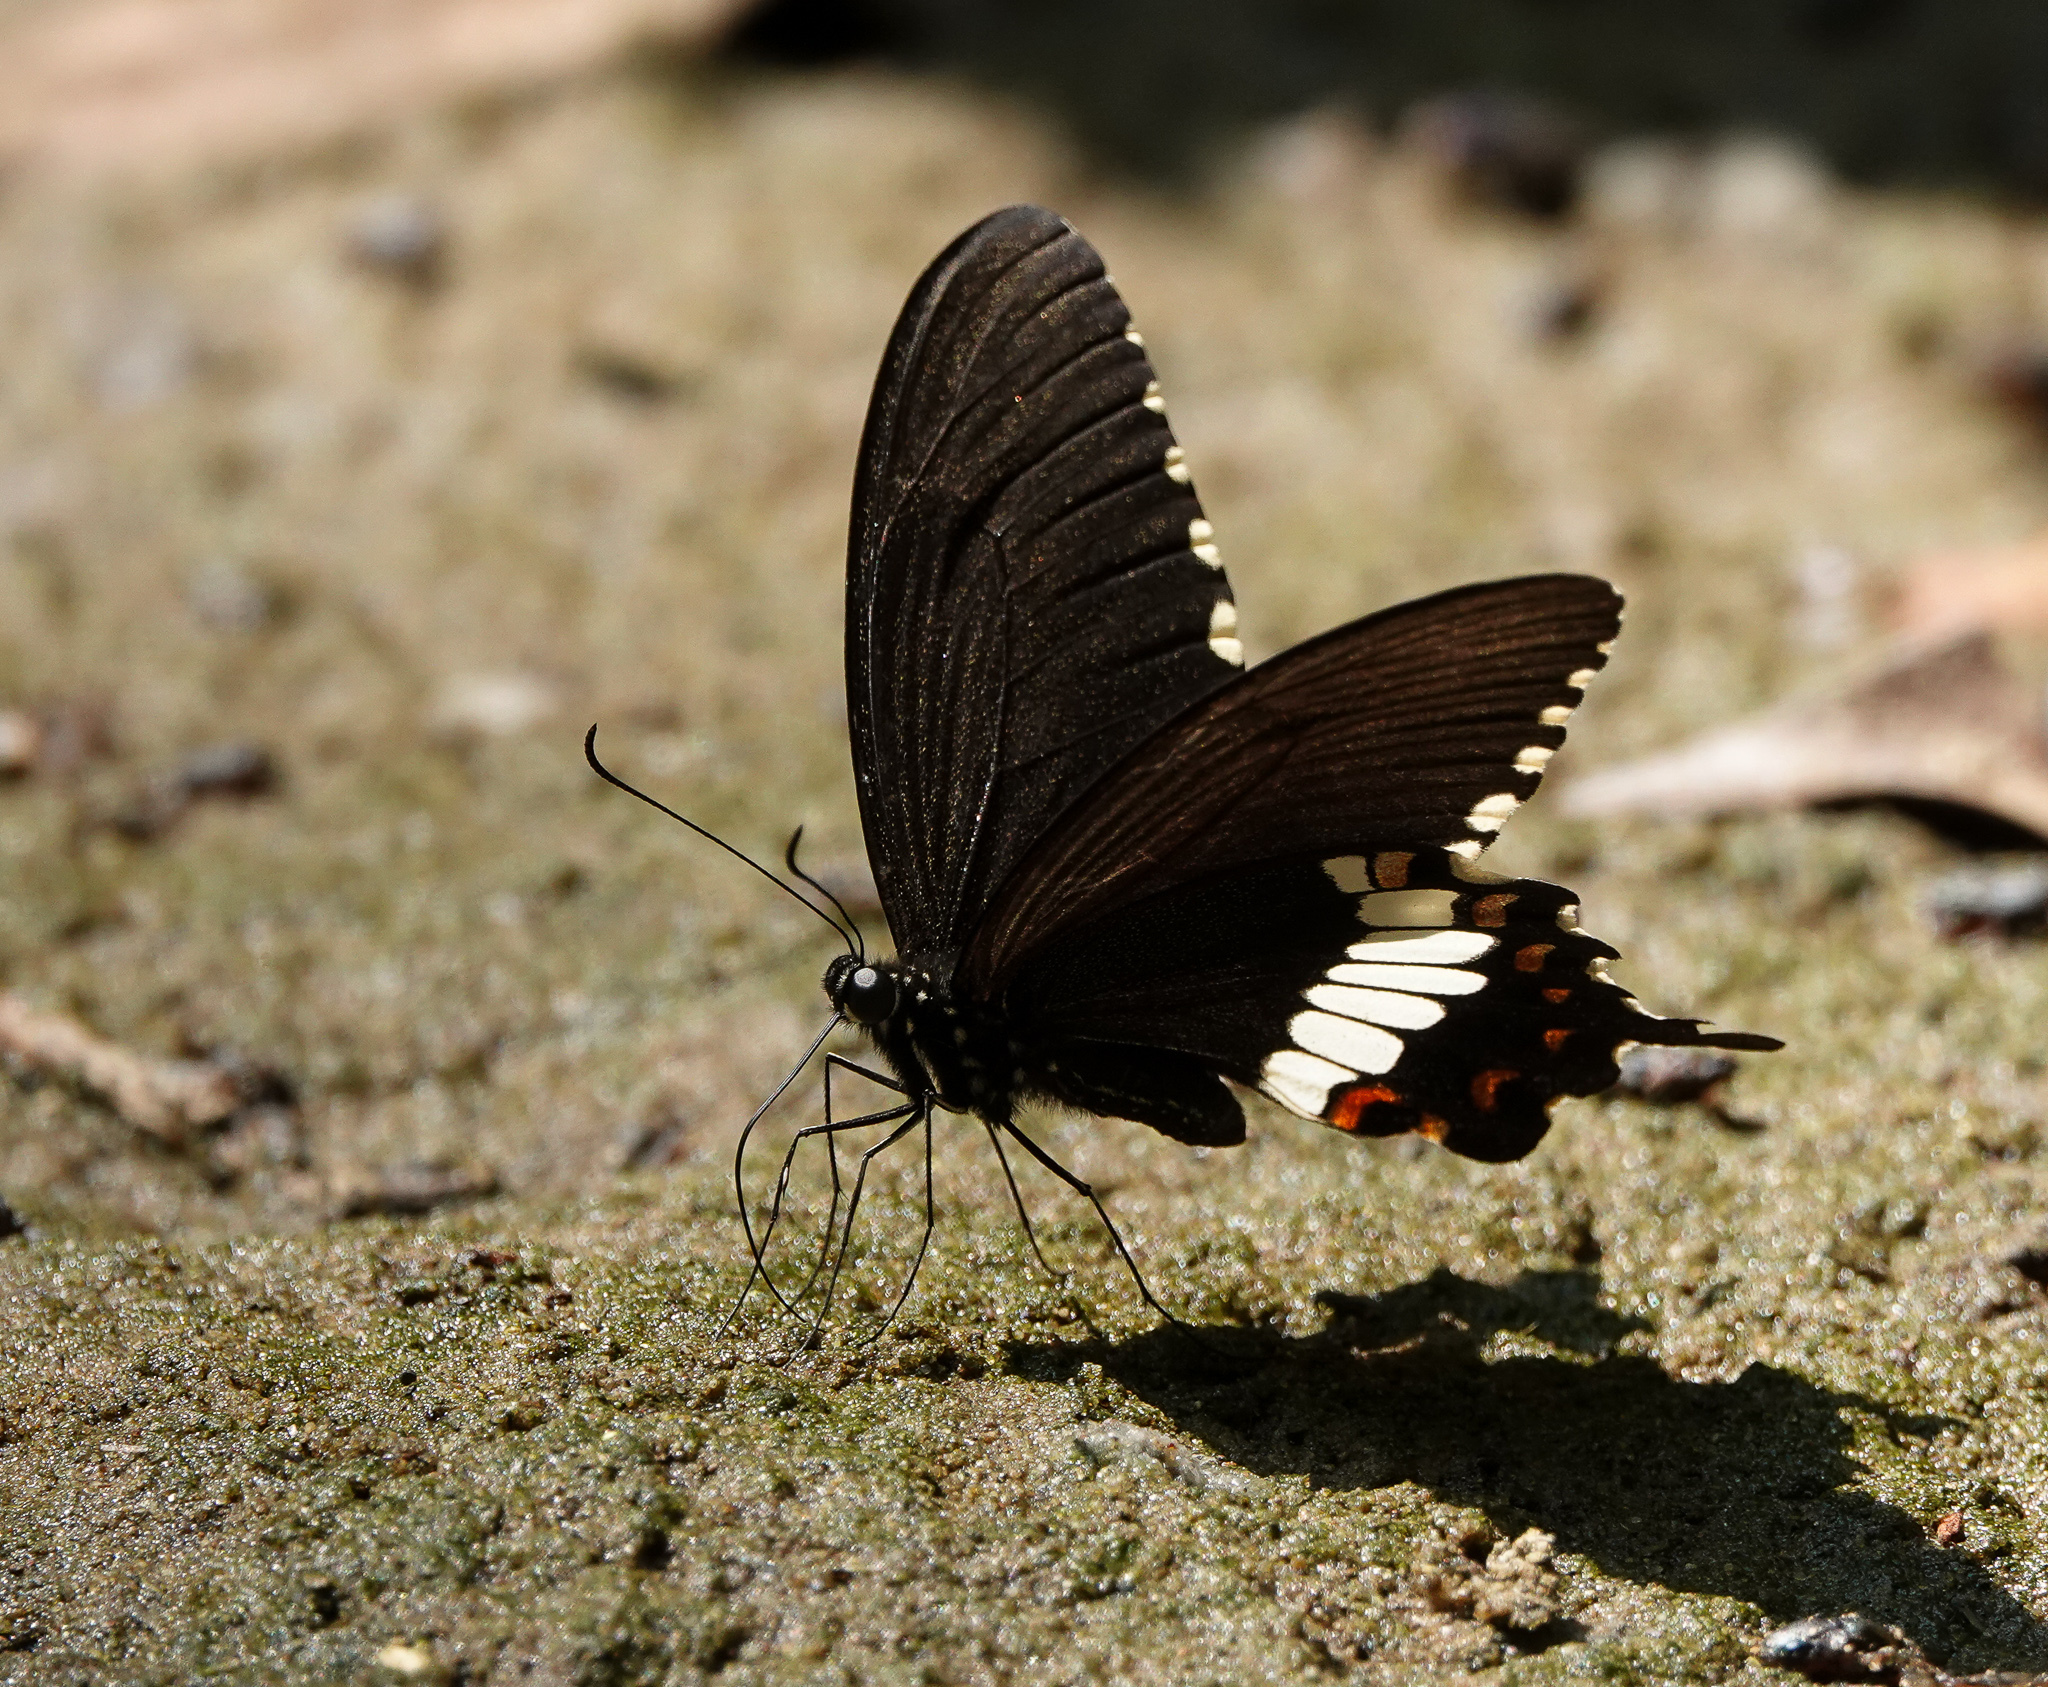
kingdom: Animalia
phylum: Arthropoda
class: Insecta
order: Lepidoptera
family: Papilionidae
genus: Papilio
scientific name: Papilio polytes
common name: Common mormon
